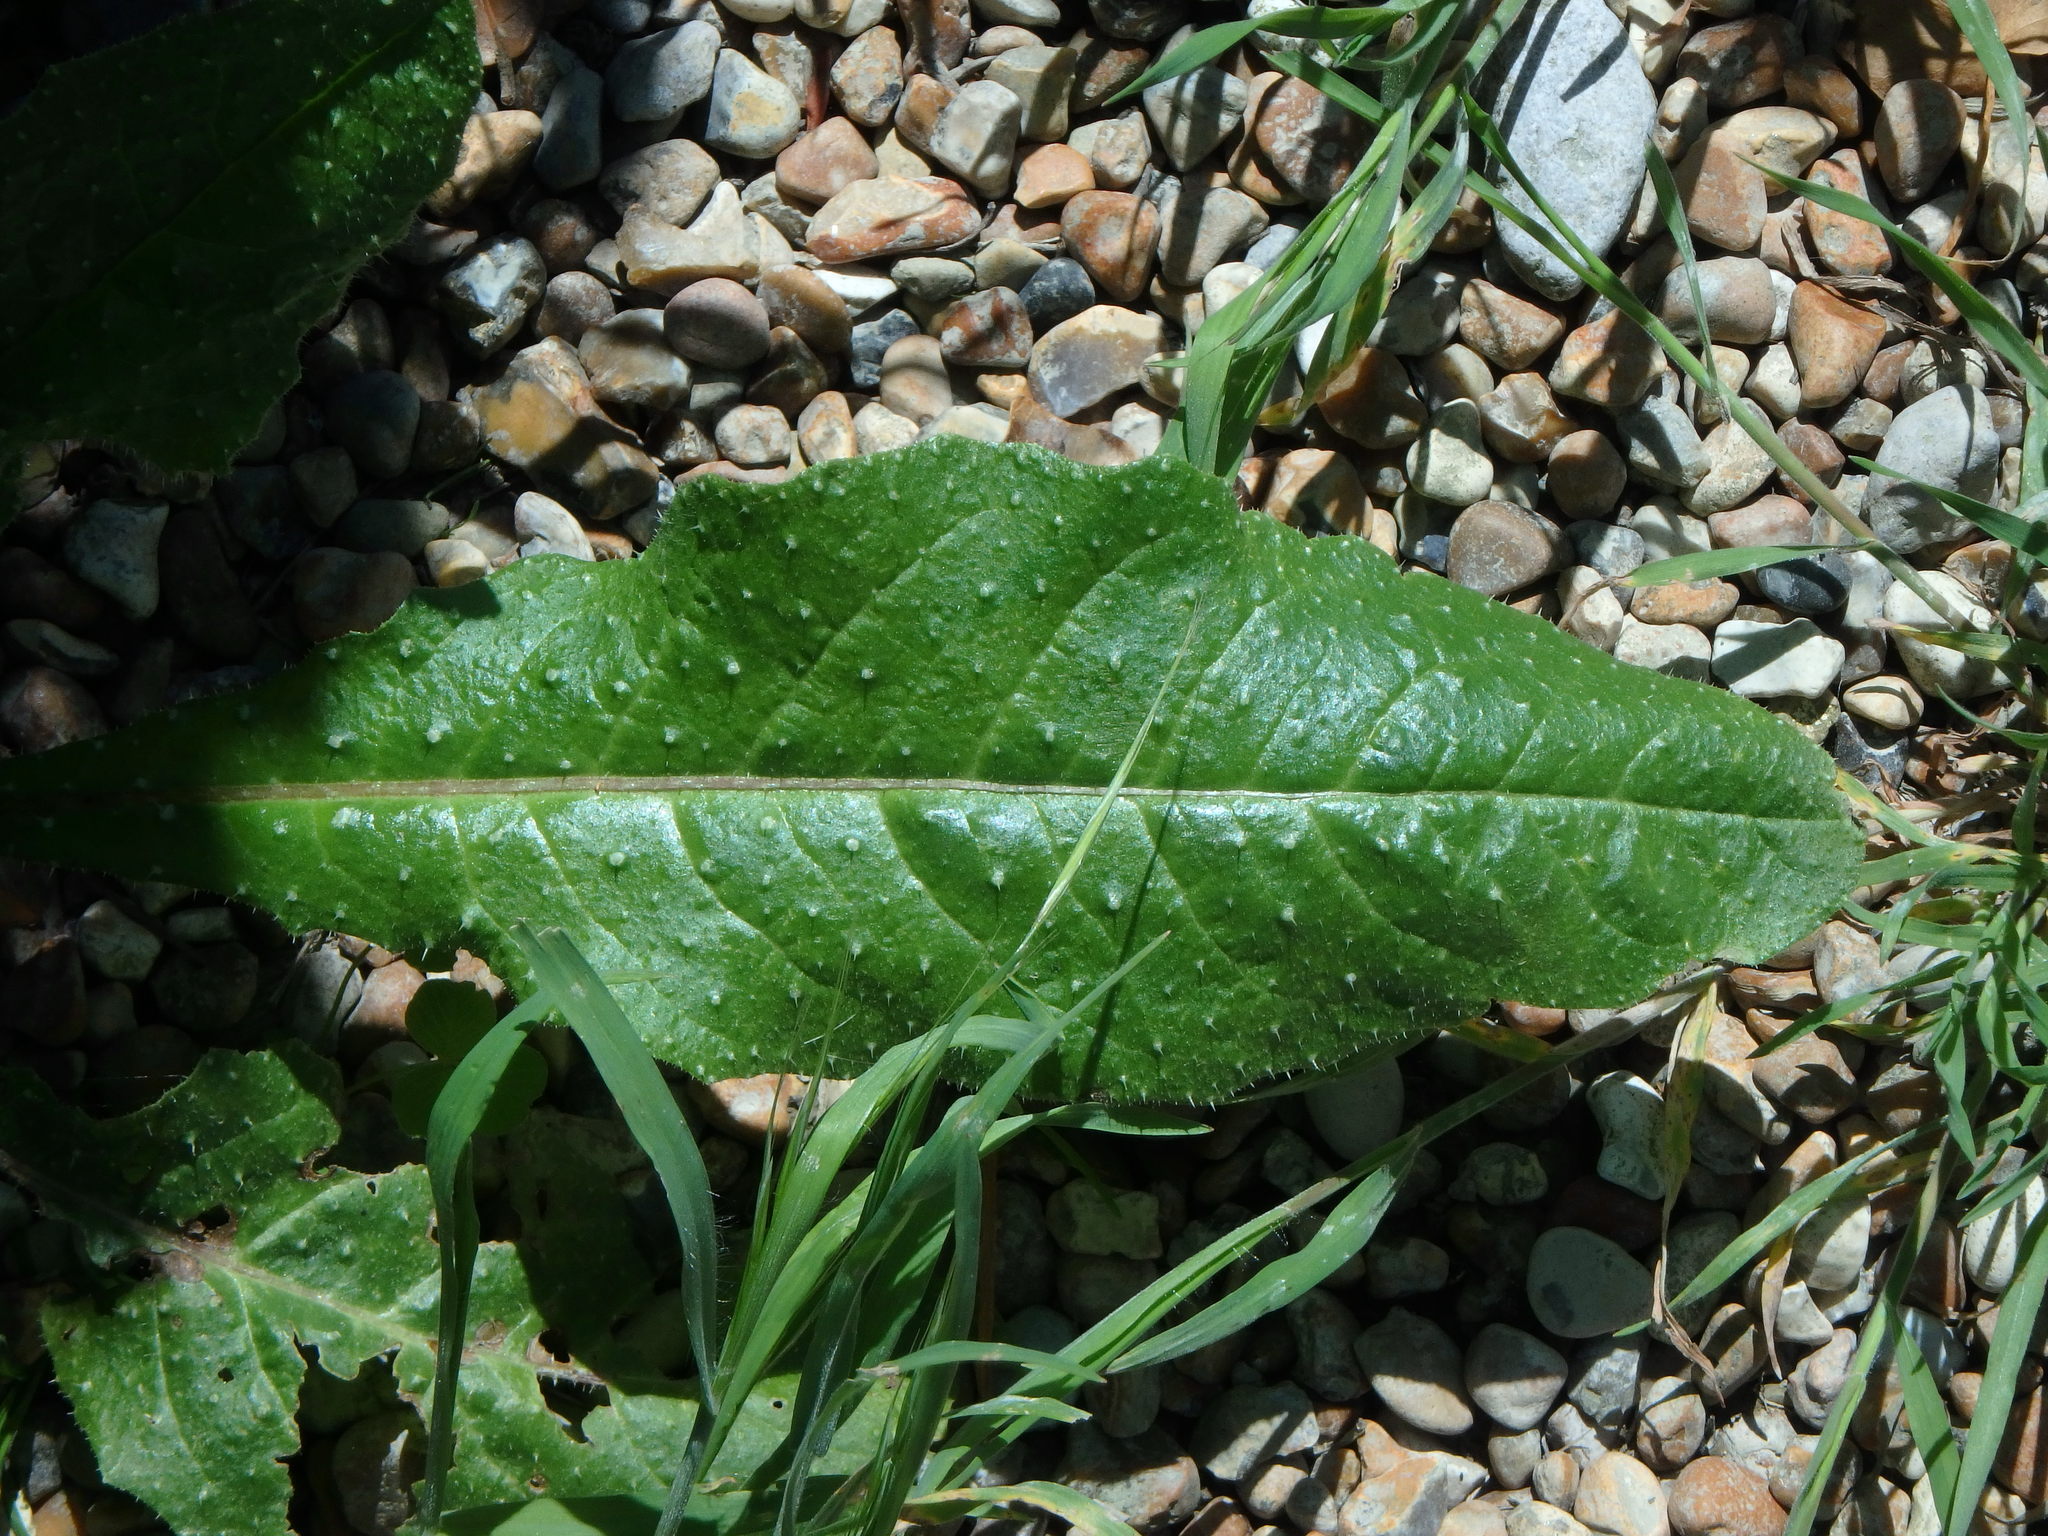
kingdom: Plantae
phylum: Tracheophyta
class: Magnoliopsida
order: Asterales
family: Asteraceae
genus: Helminthotheca
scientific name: Helminthotheca echioides
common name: Ox-tongue
